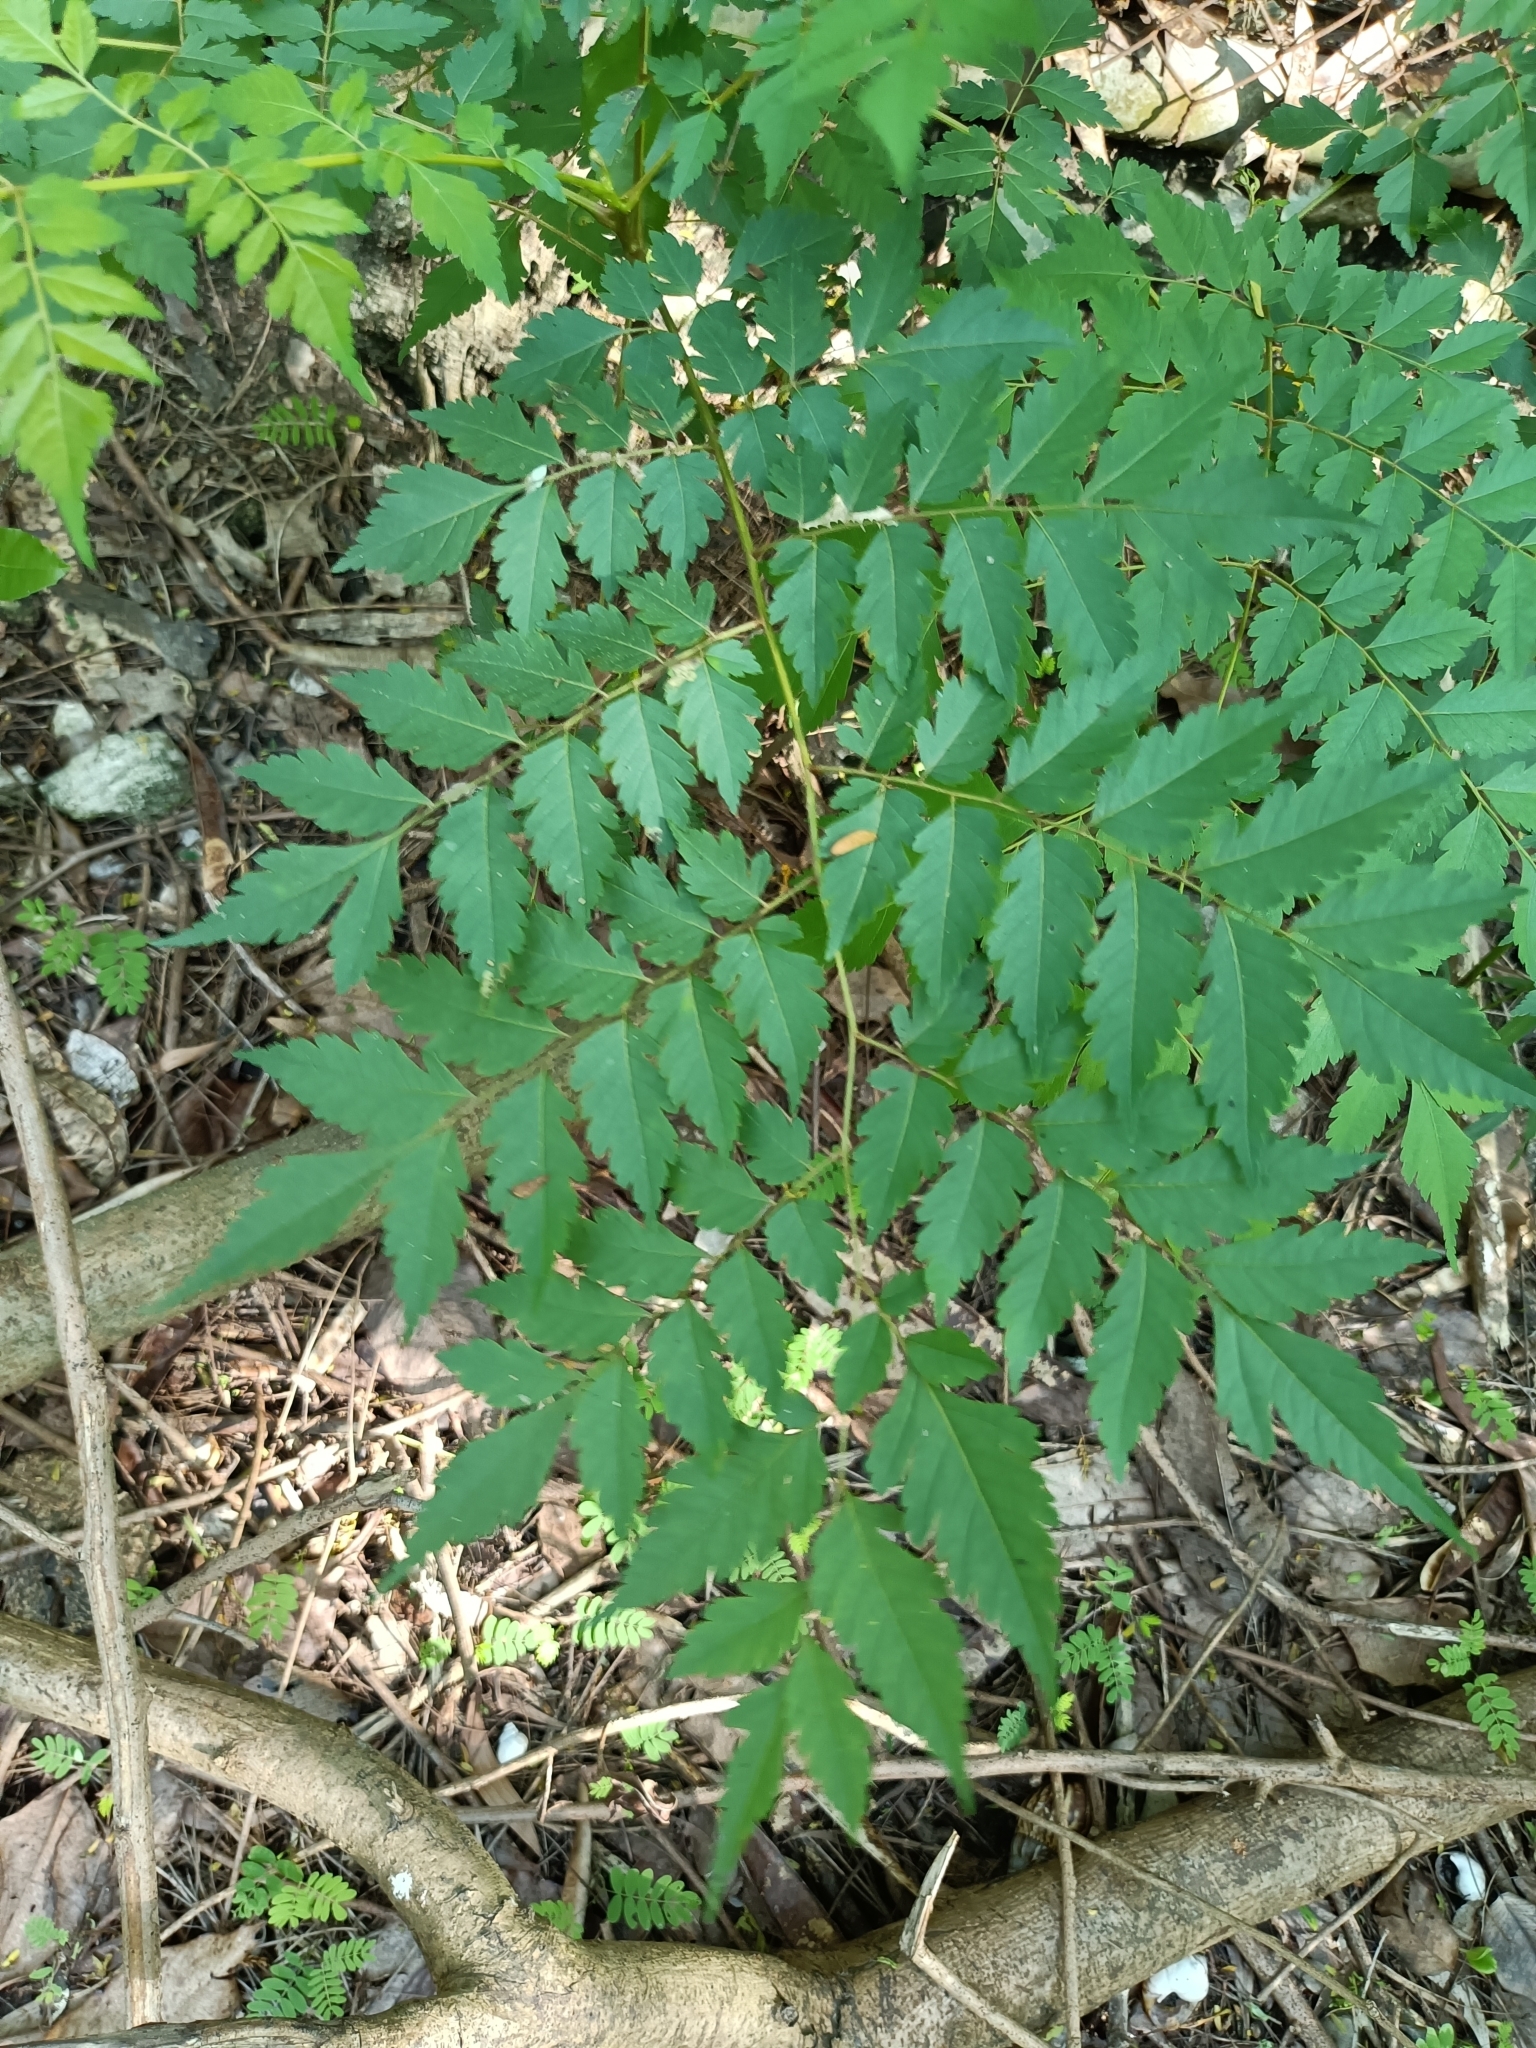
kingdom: Plantae
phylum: Tracheophyta
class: Magnoliopsida
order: Sapindales
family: Sapindaceae
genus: Koelreuteria
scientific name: Koelreuteria elegans
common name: Chinese flame tree
